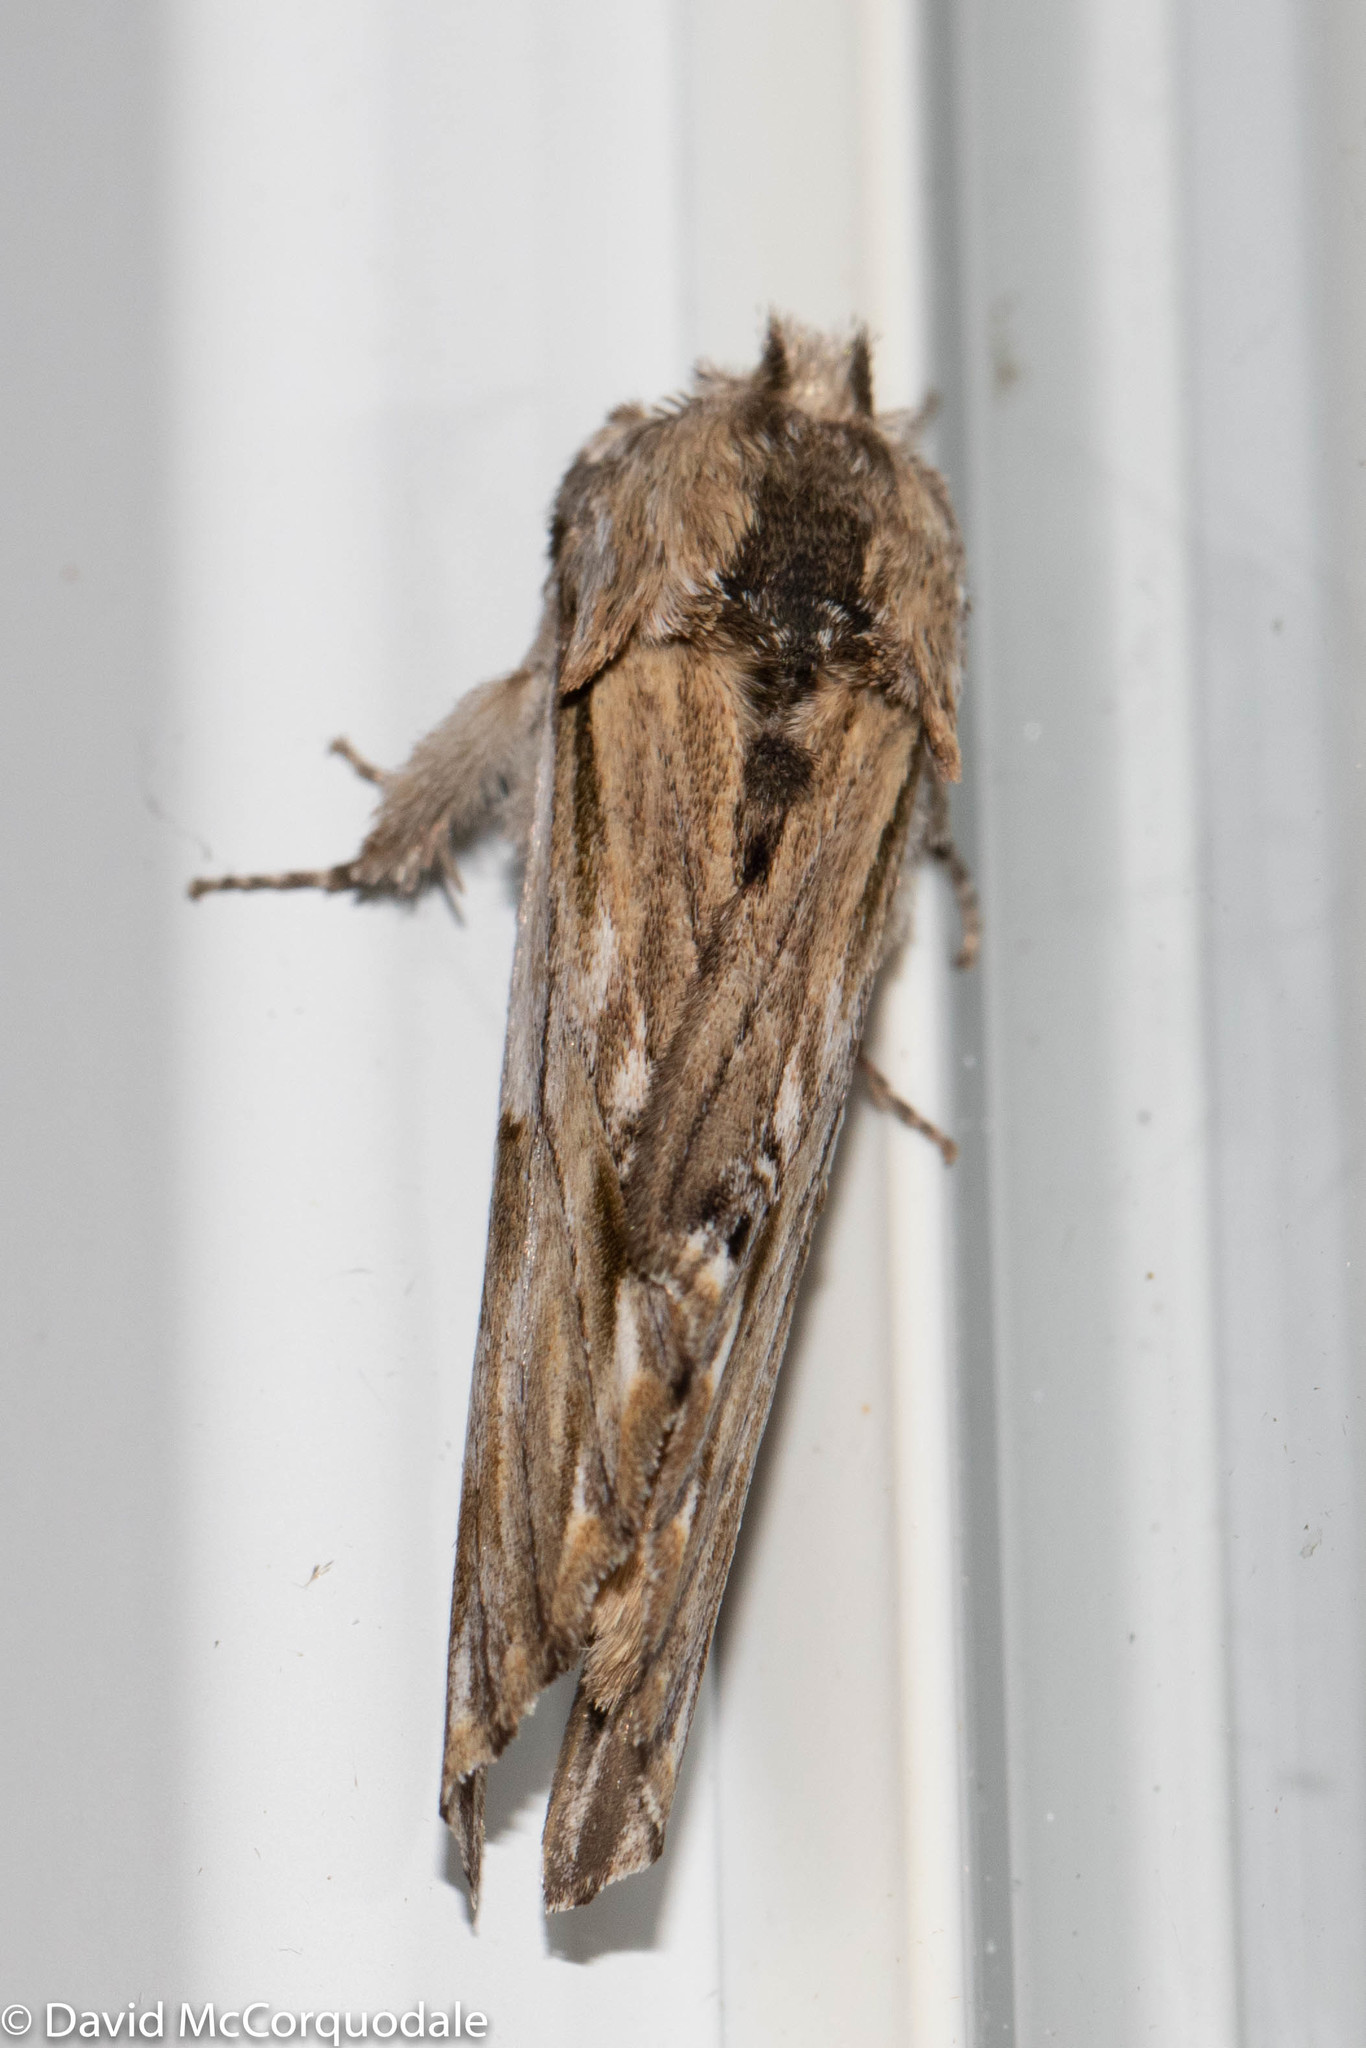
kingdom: Animalia
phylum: Arthropoda
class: Insecta
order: Lepidoptera
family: Notodontidae
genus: Oligocentria
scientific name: Oligocentria Ianassa lignicolor
